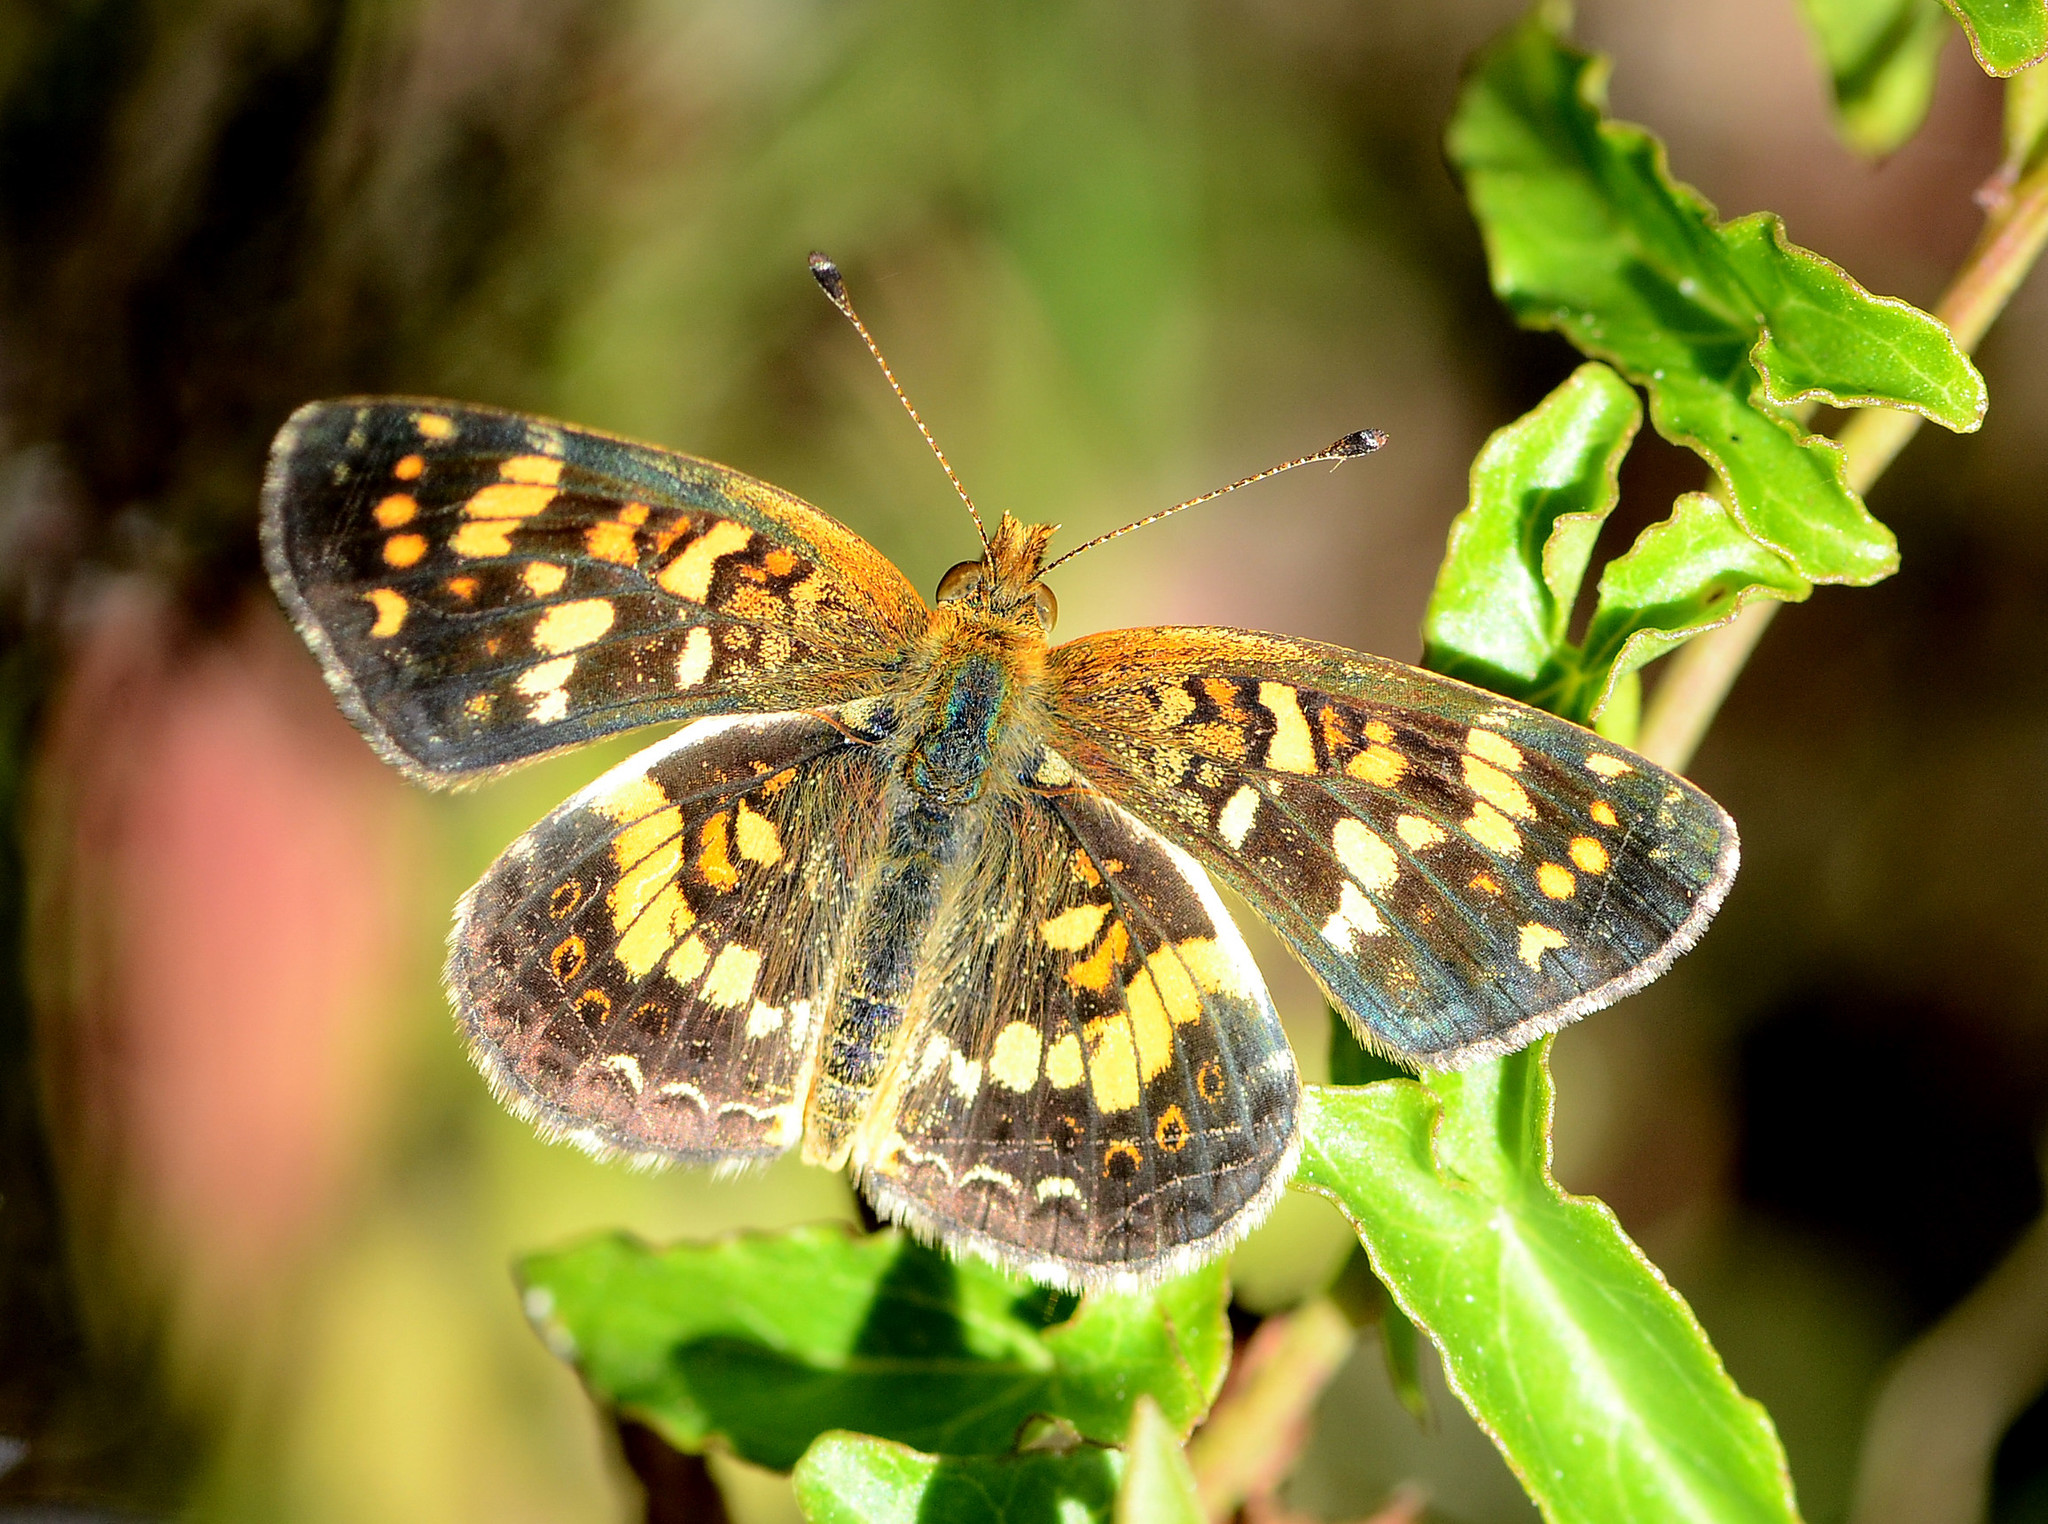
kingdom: Animalia
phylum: Arthropoda
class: Insecta
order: Lepidoptera
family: Nymphalidae
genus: Phyciodes
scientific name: Phyciodes tharos
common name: Pearl crescent
